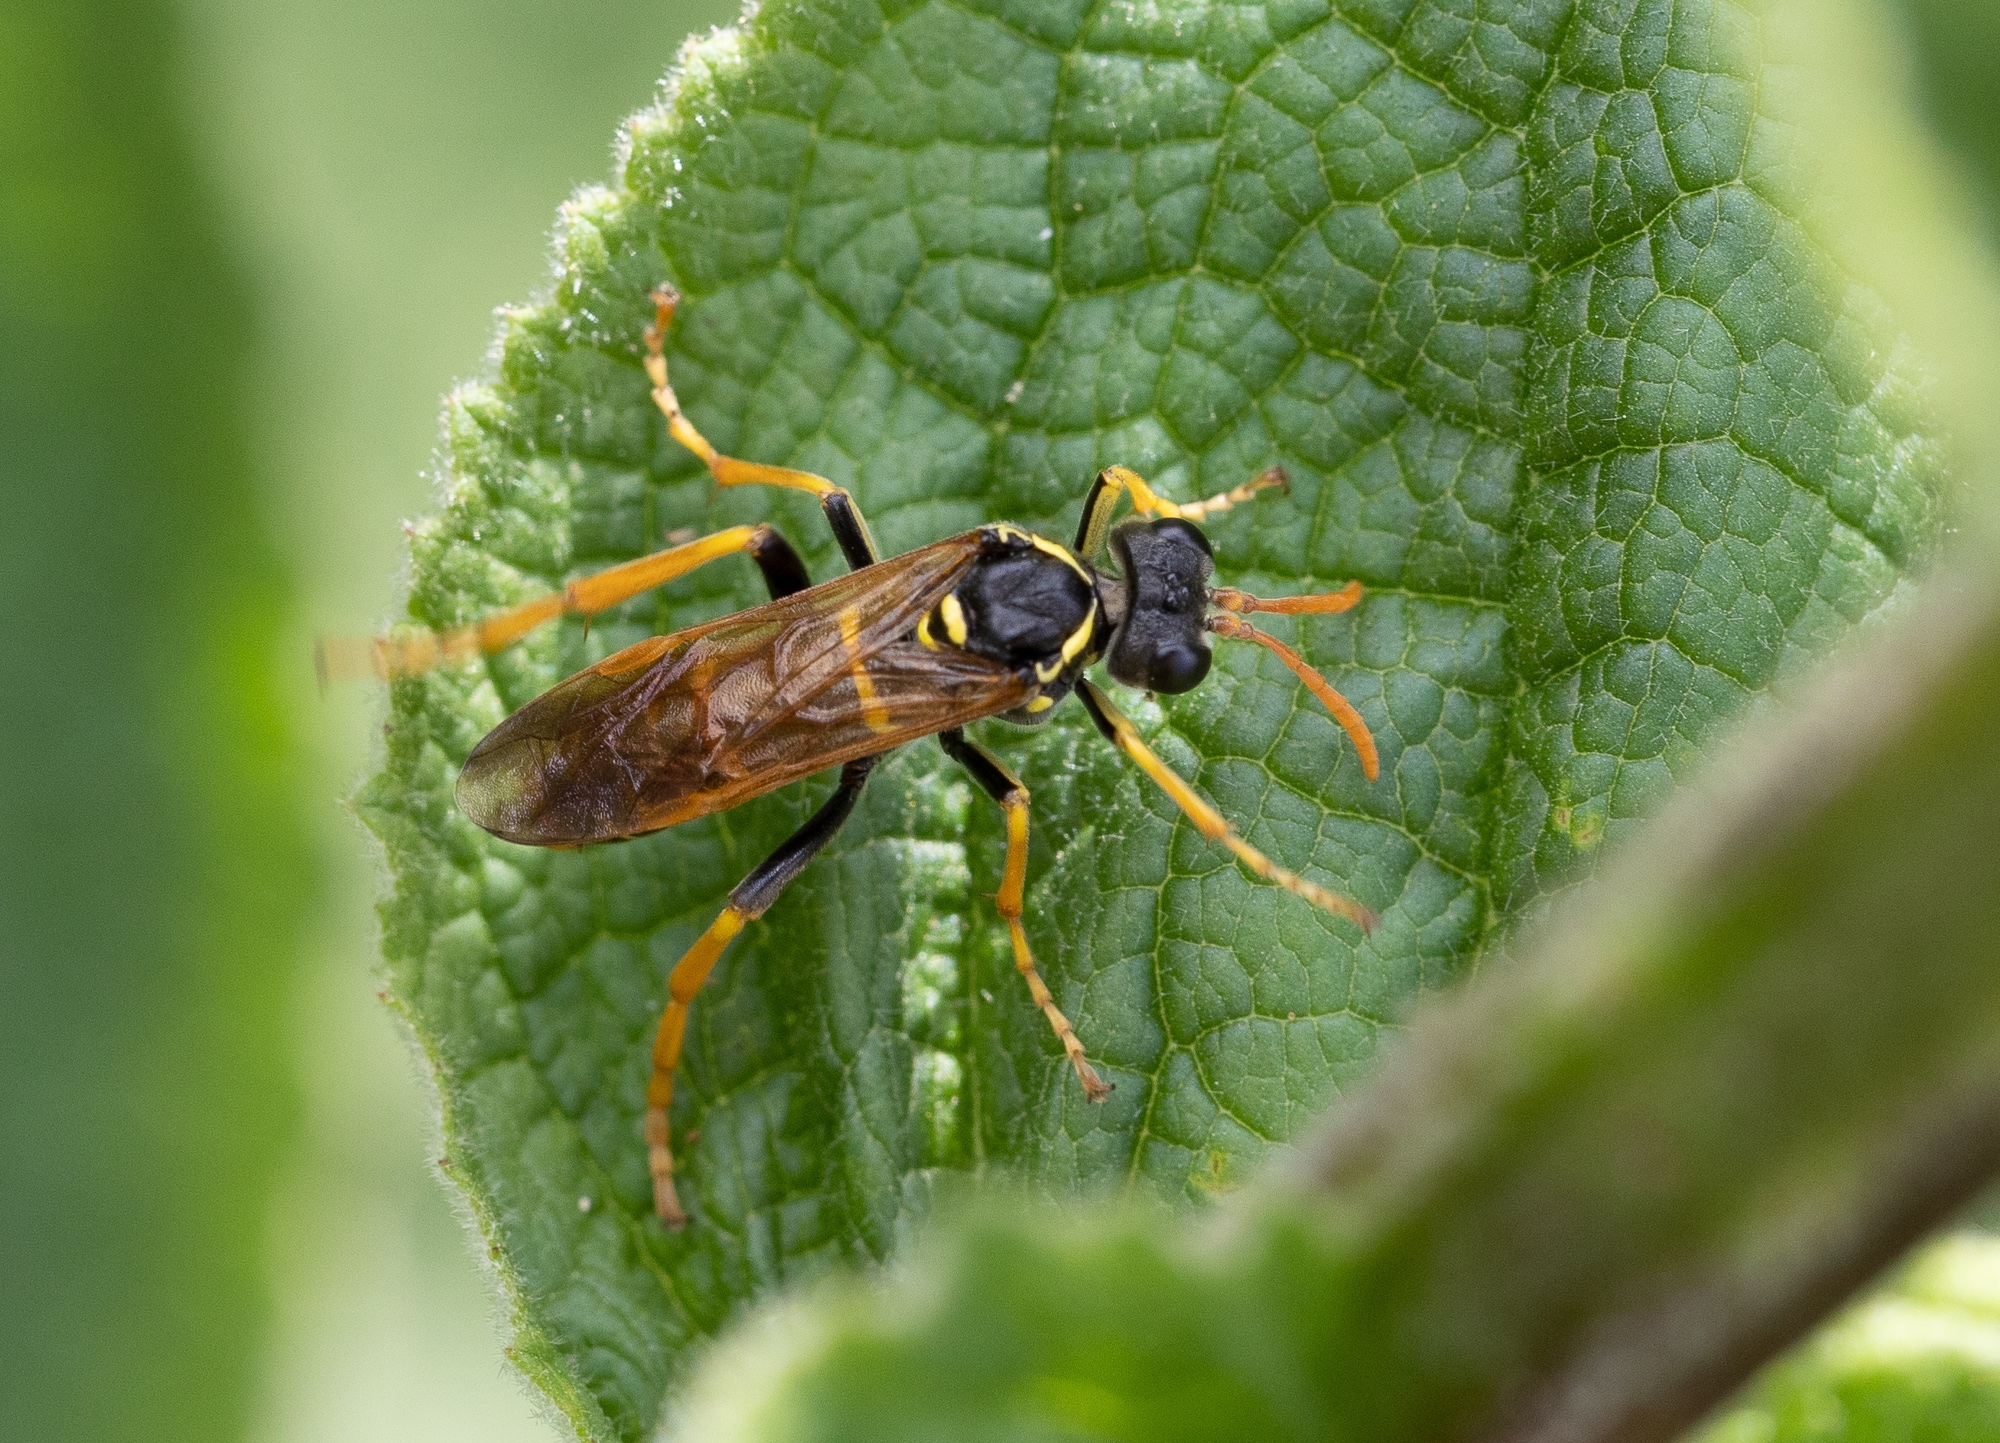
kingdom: Animalia
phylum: Arthropoda
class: Insecta
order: Hymenoptera
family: Tenthredinidae
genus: Tenthredo
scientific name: Tenthredo scrophulariae
